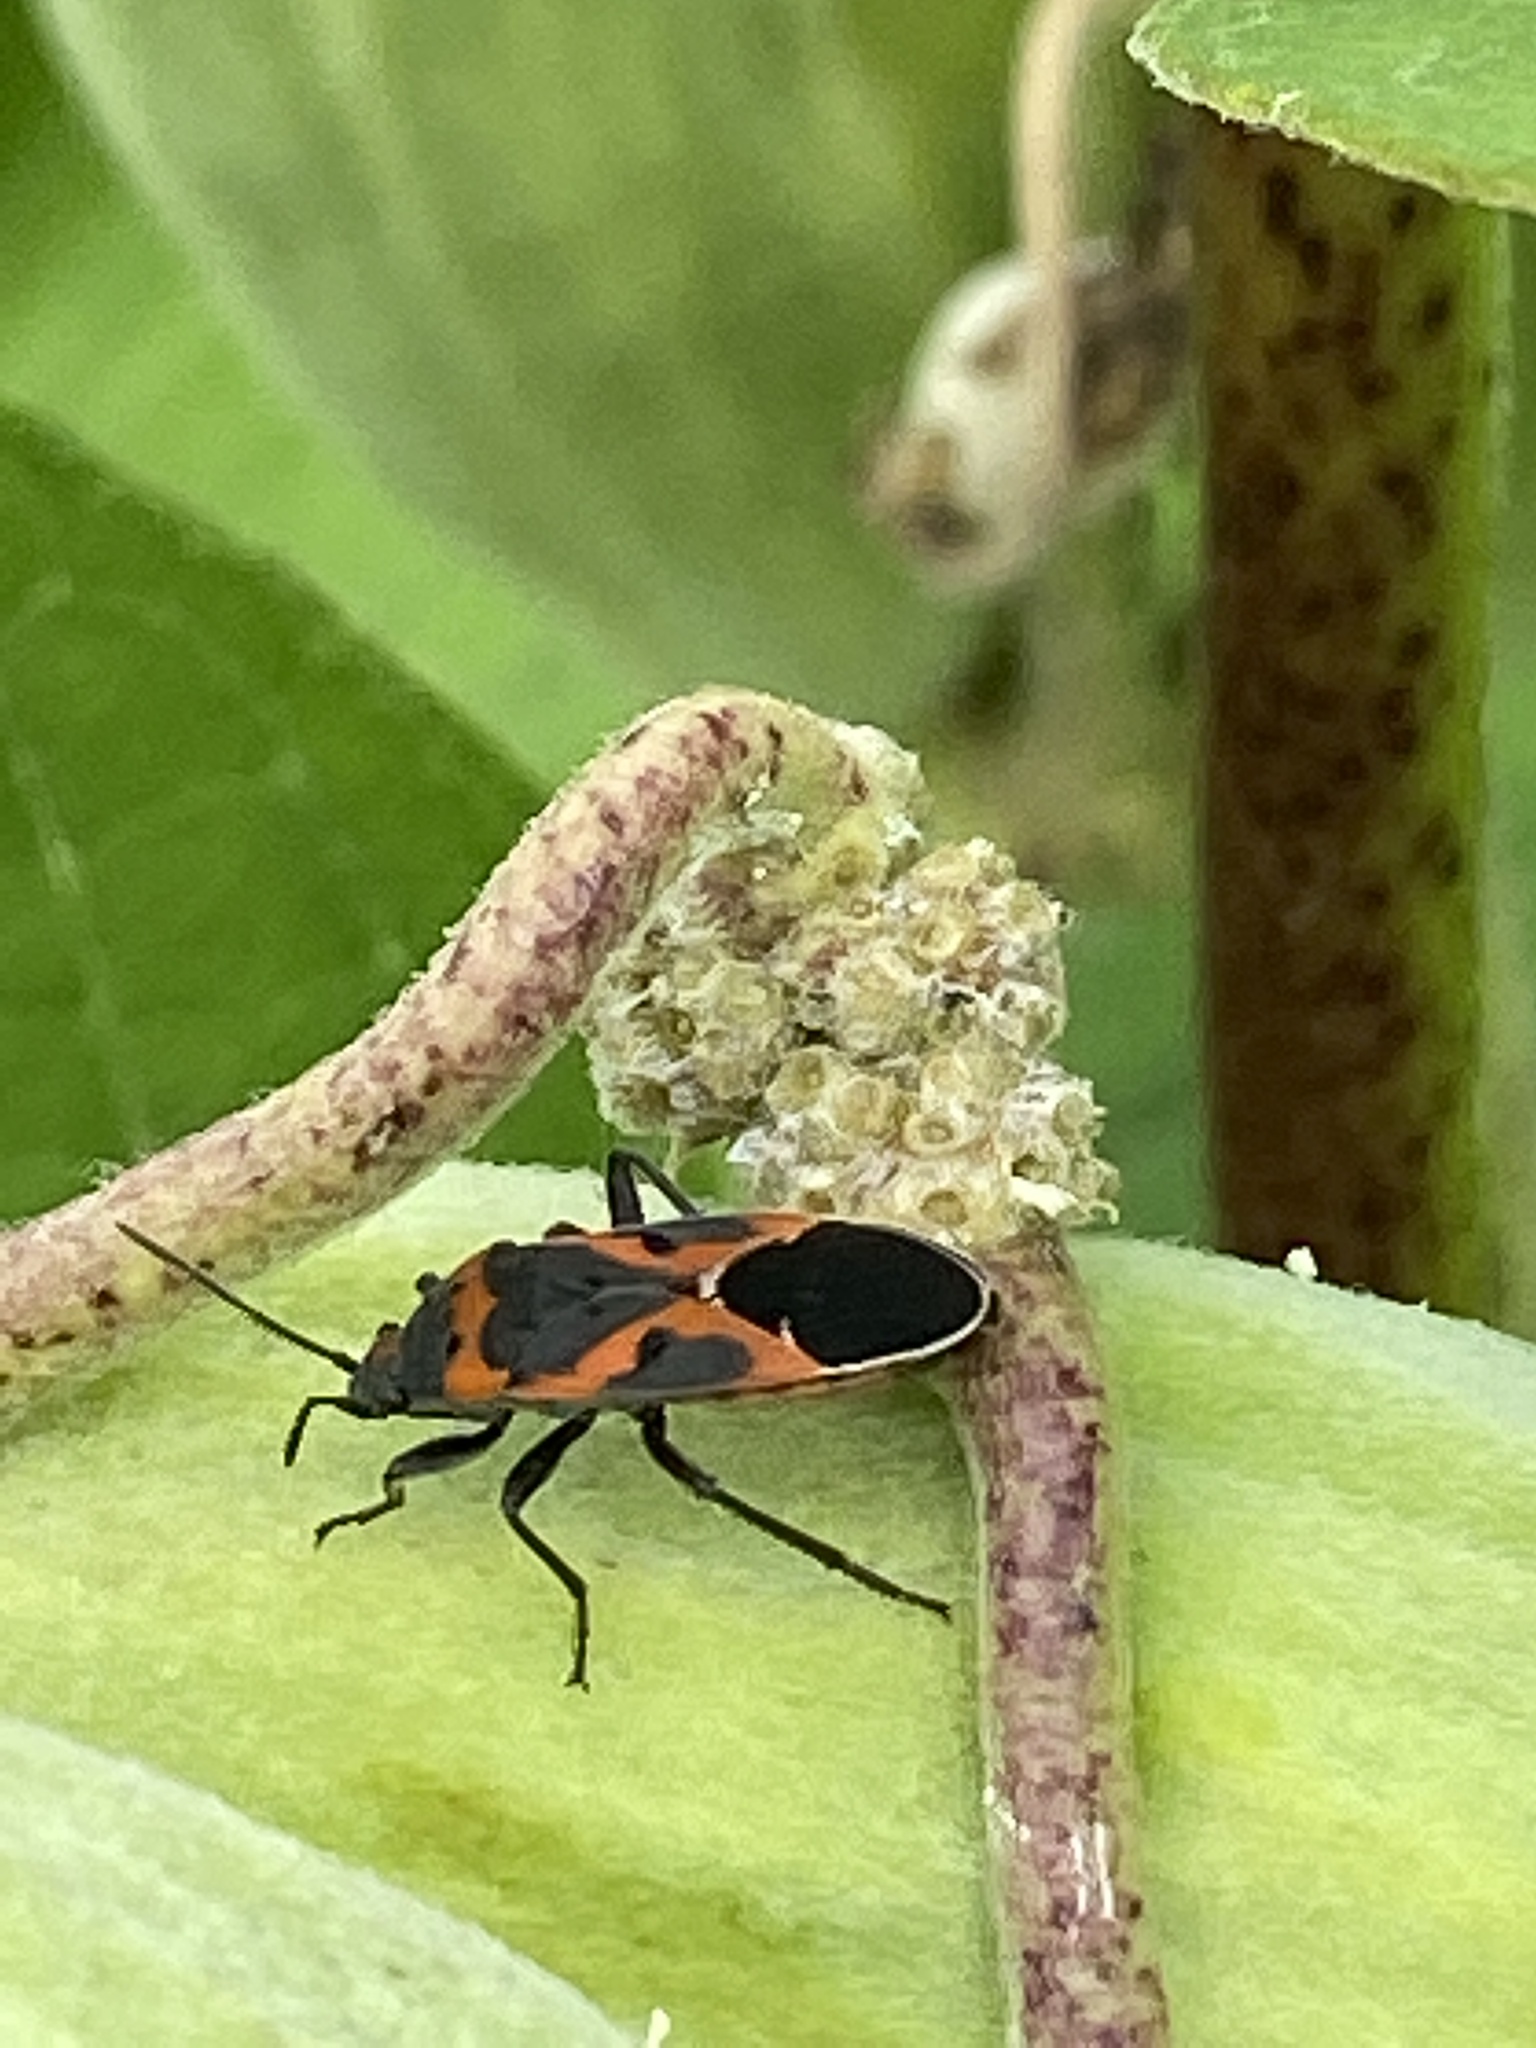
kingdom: Animalia
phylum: Arthropoda
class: Insecta
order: Hemiptera
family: Lygaeidae
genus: Lygaeus
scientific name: Lygaeus kalmii
